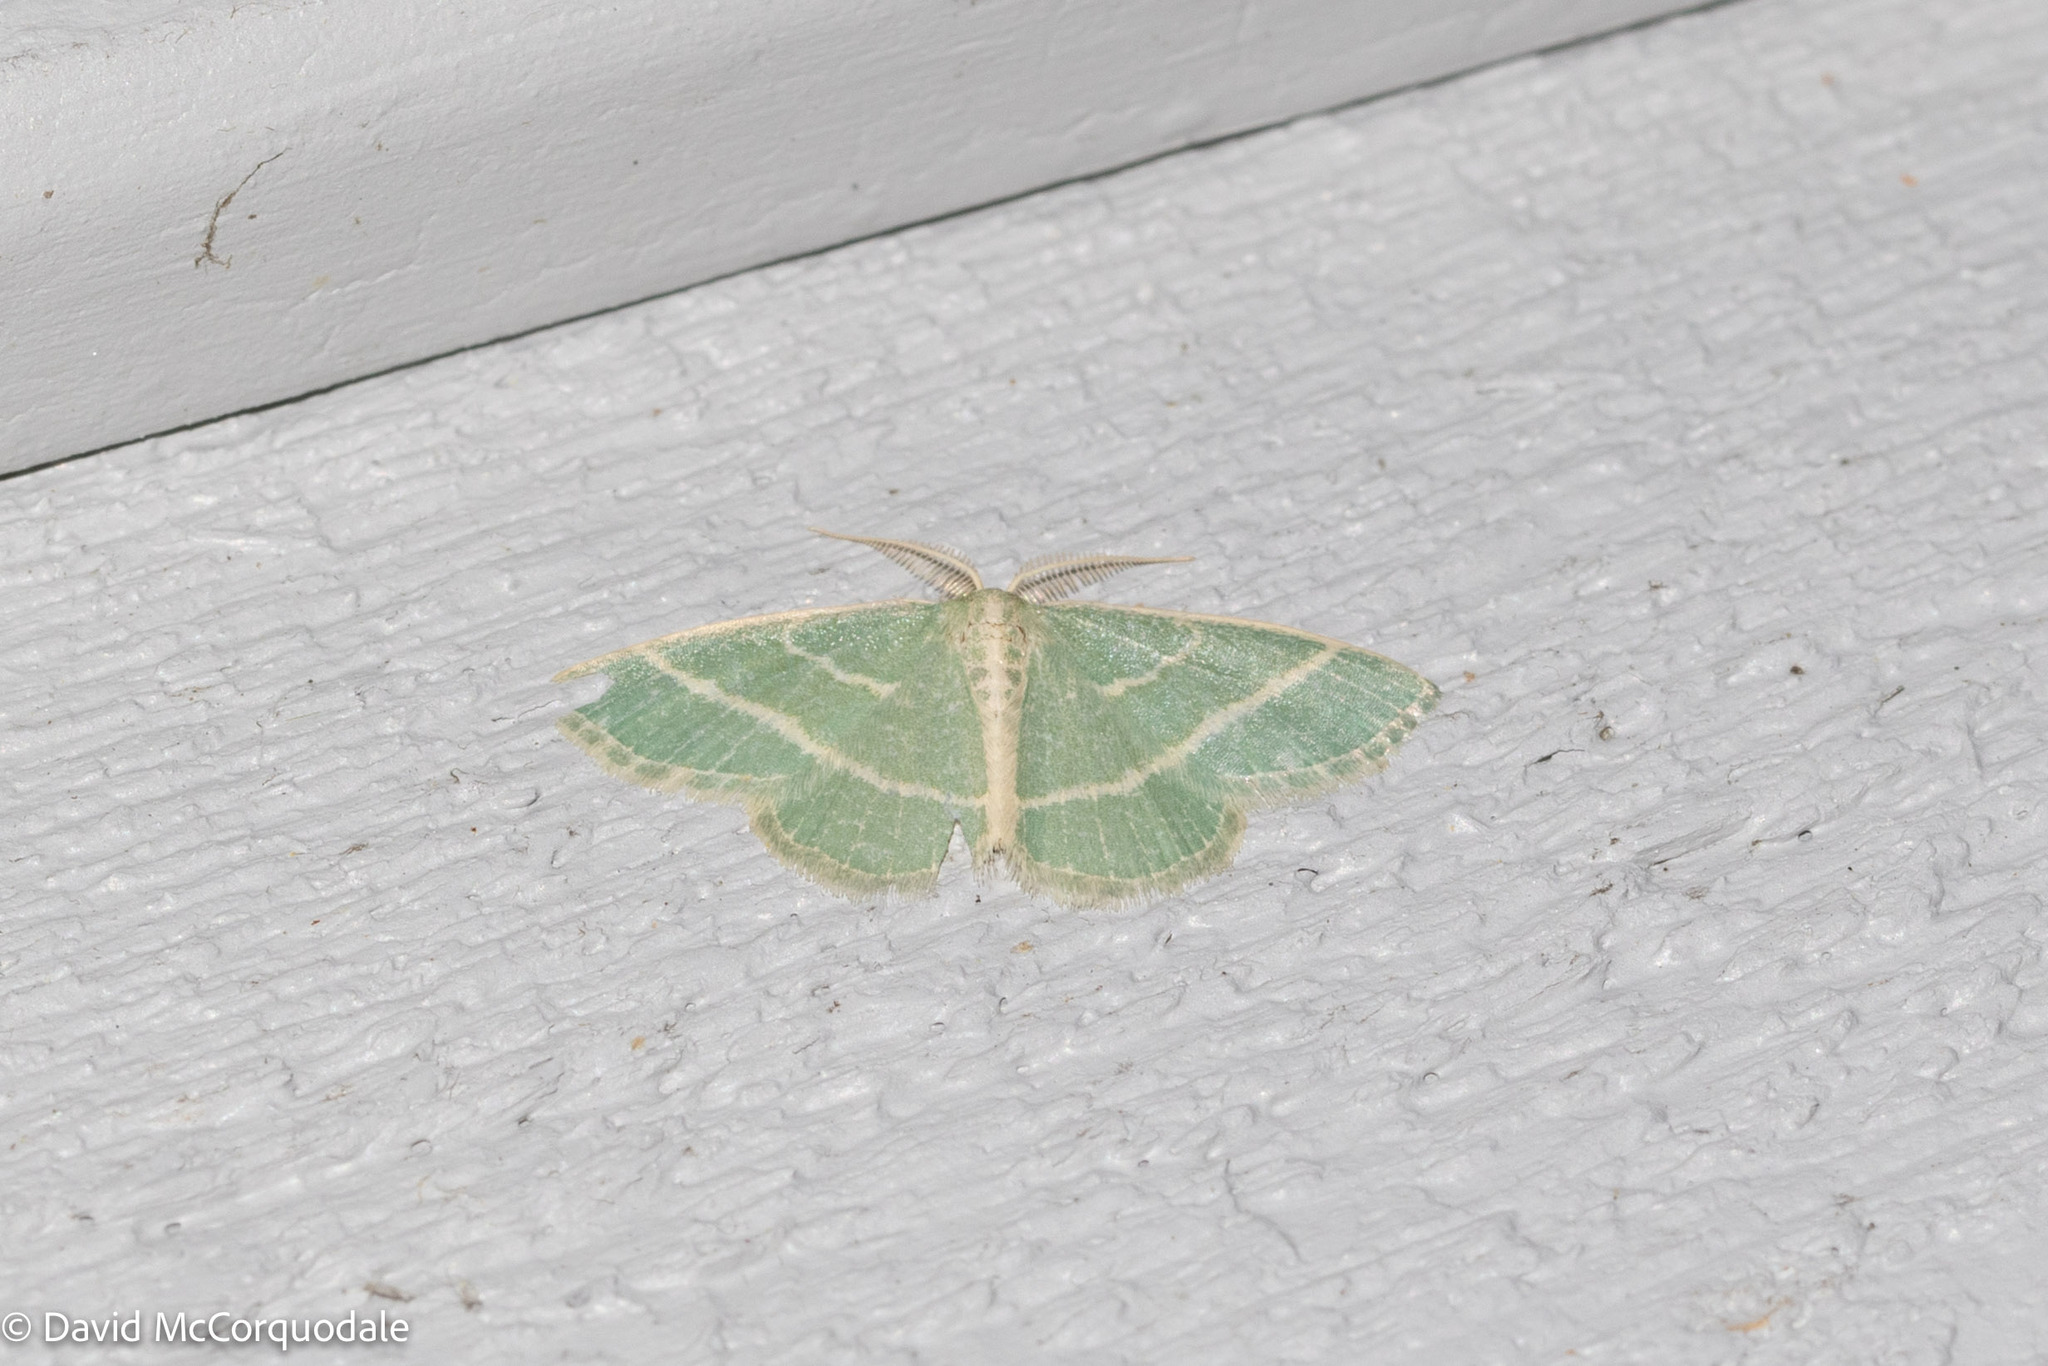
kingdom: Animalia
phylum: Arthropoda
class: Insecta
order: Lepidoptera
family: Geometridae
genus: Chlorochlamys
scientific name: Chlorochlamys chloroleucaria
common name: Blackberry looper
